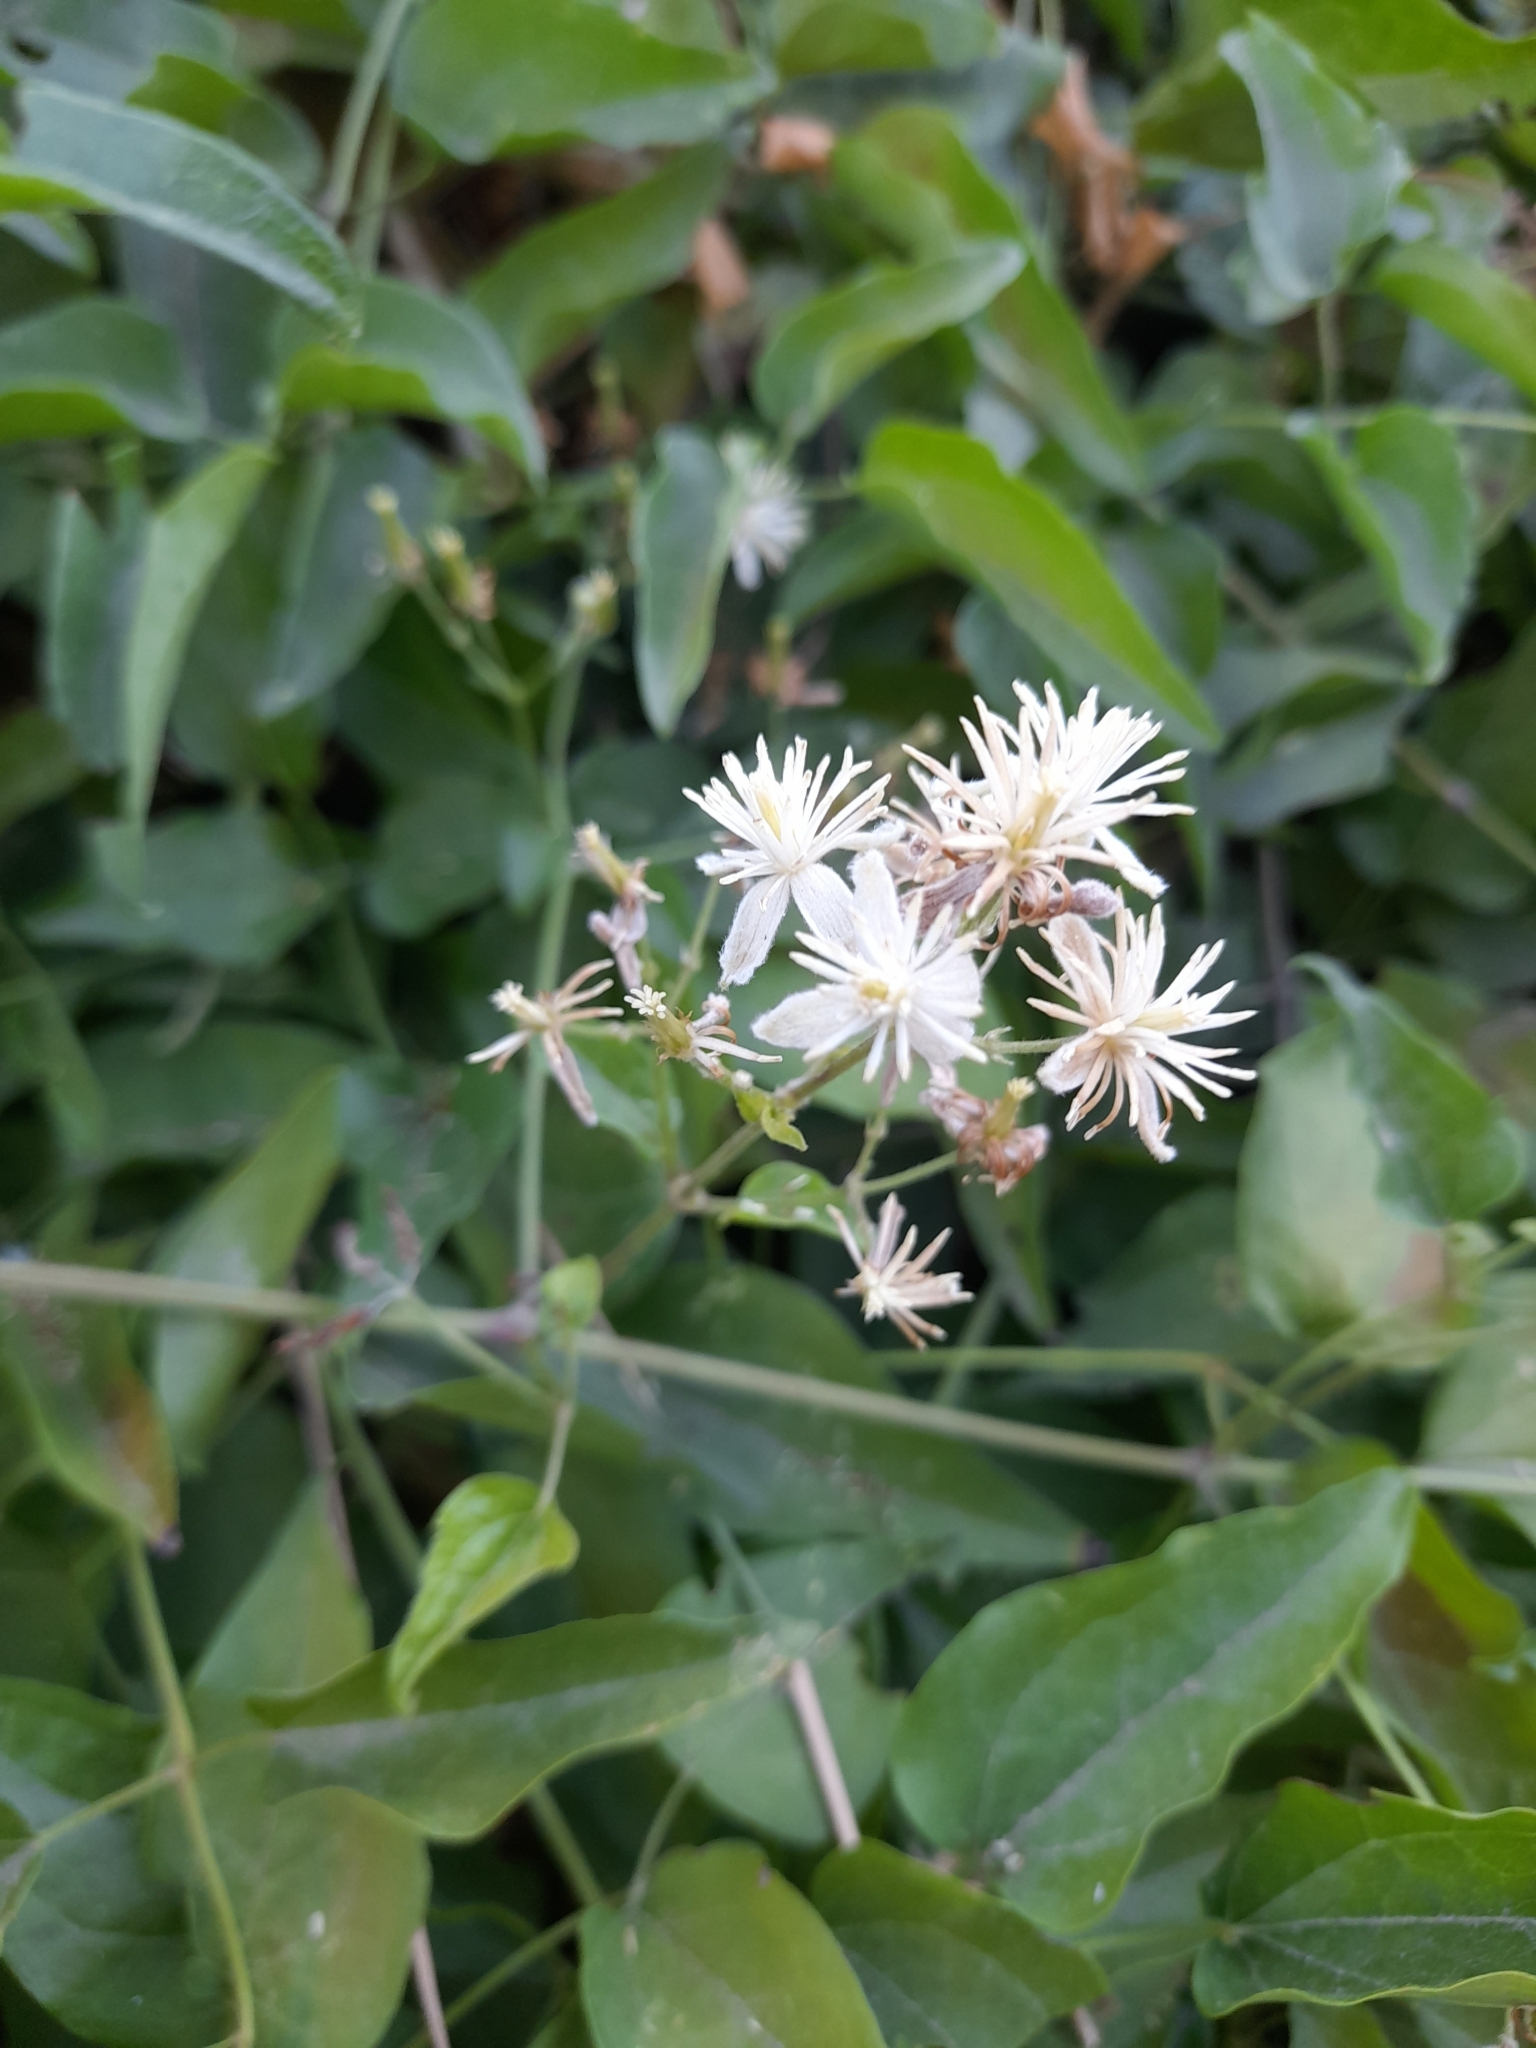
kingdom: Plantae
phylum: Tracheophyta
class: Magnoliopsida
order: Ranunculales
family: Ranunculaceae
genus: Clematis
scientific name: Clematis vitalba
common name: Evergreen clematis
